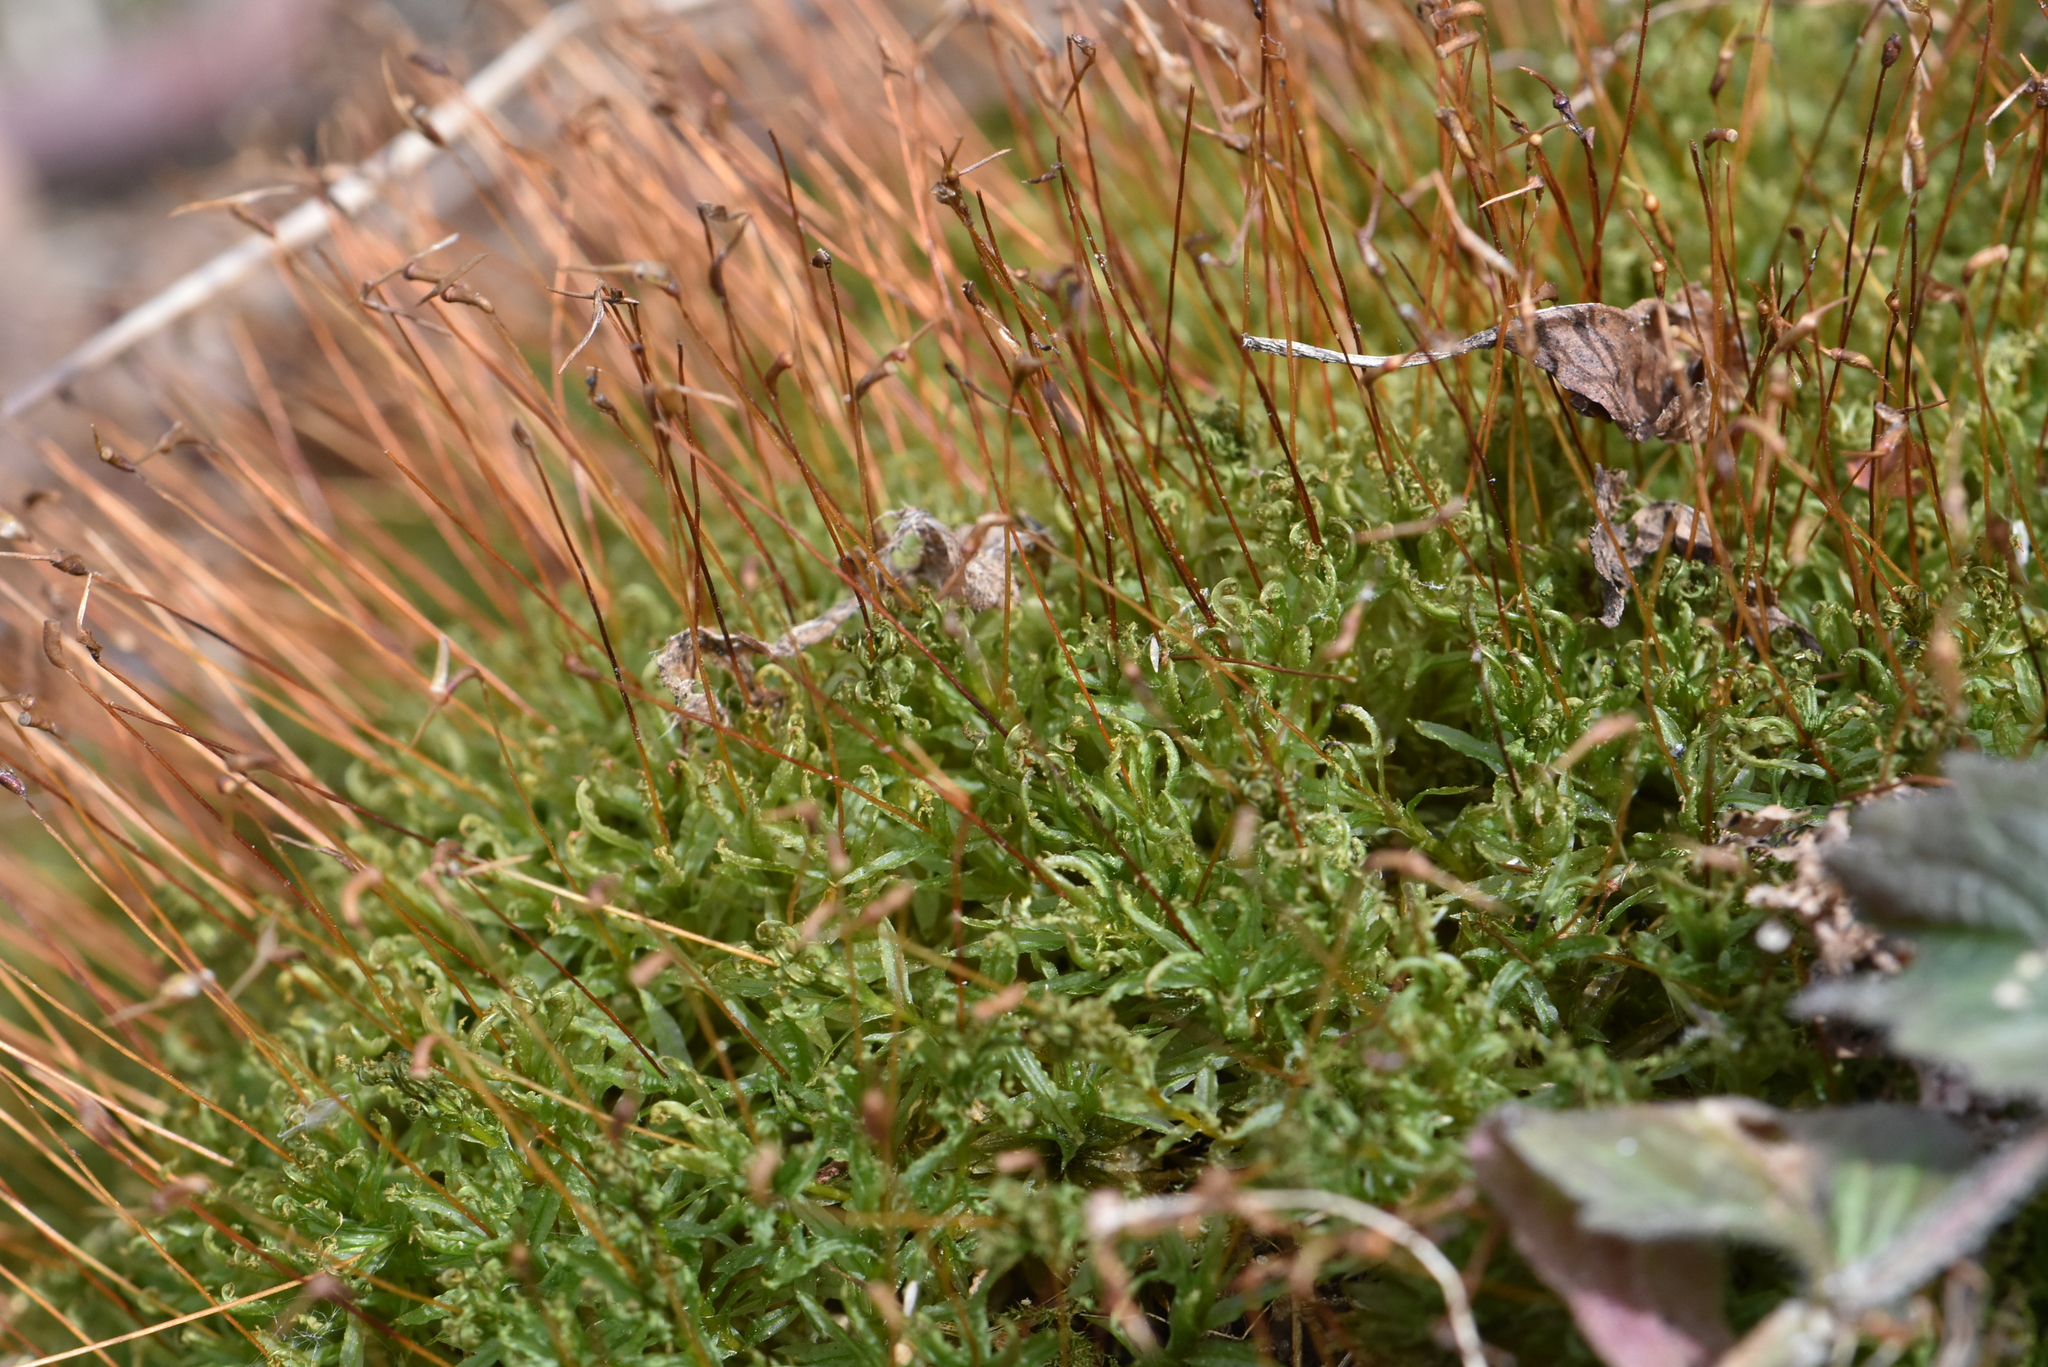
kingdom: Plantae
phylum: Bryophyta
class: Polytrichopsida
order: Polytrichales
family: Polytrichaceae
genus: Atrichum
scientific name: Atrichum undulatum
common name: Common smoothcap
